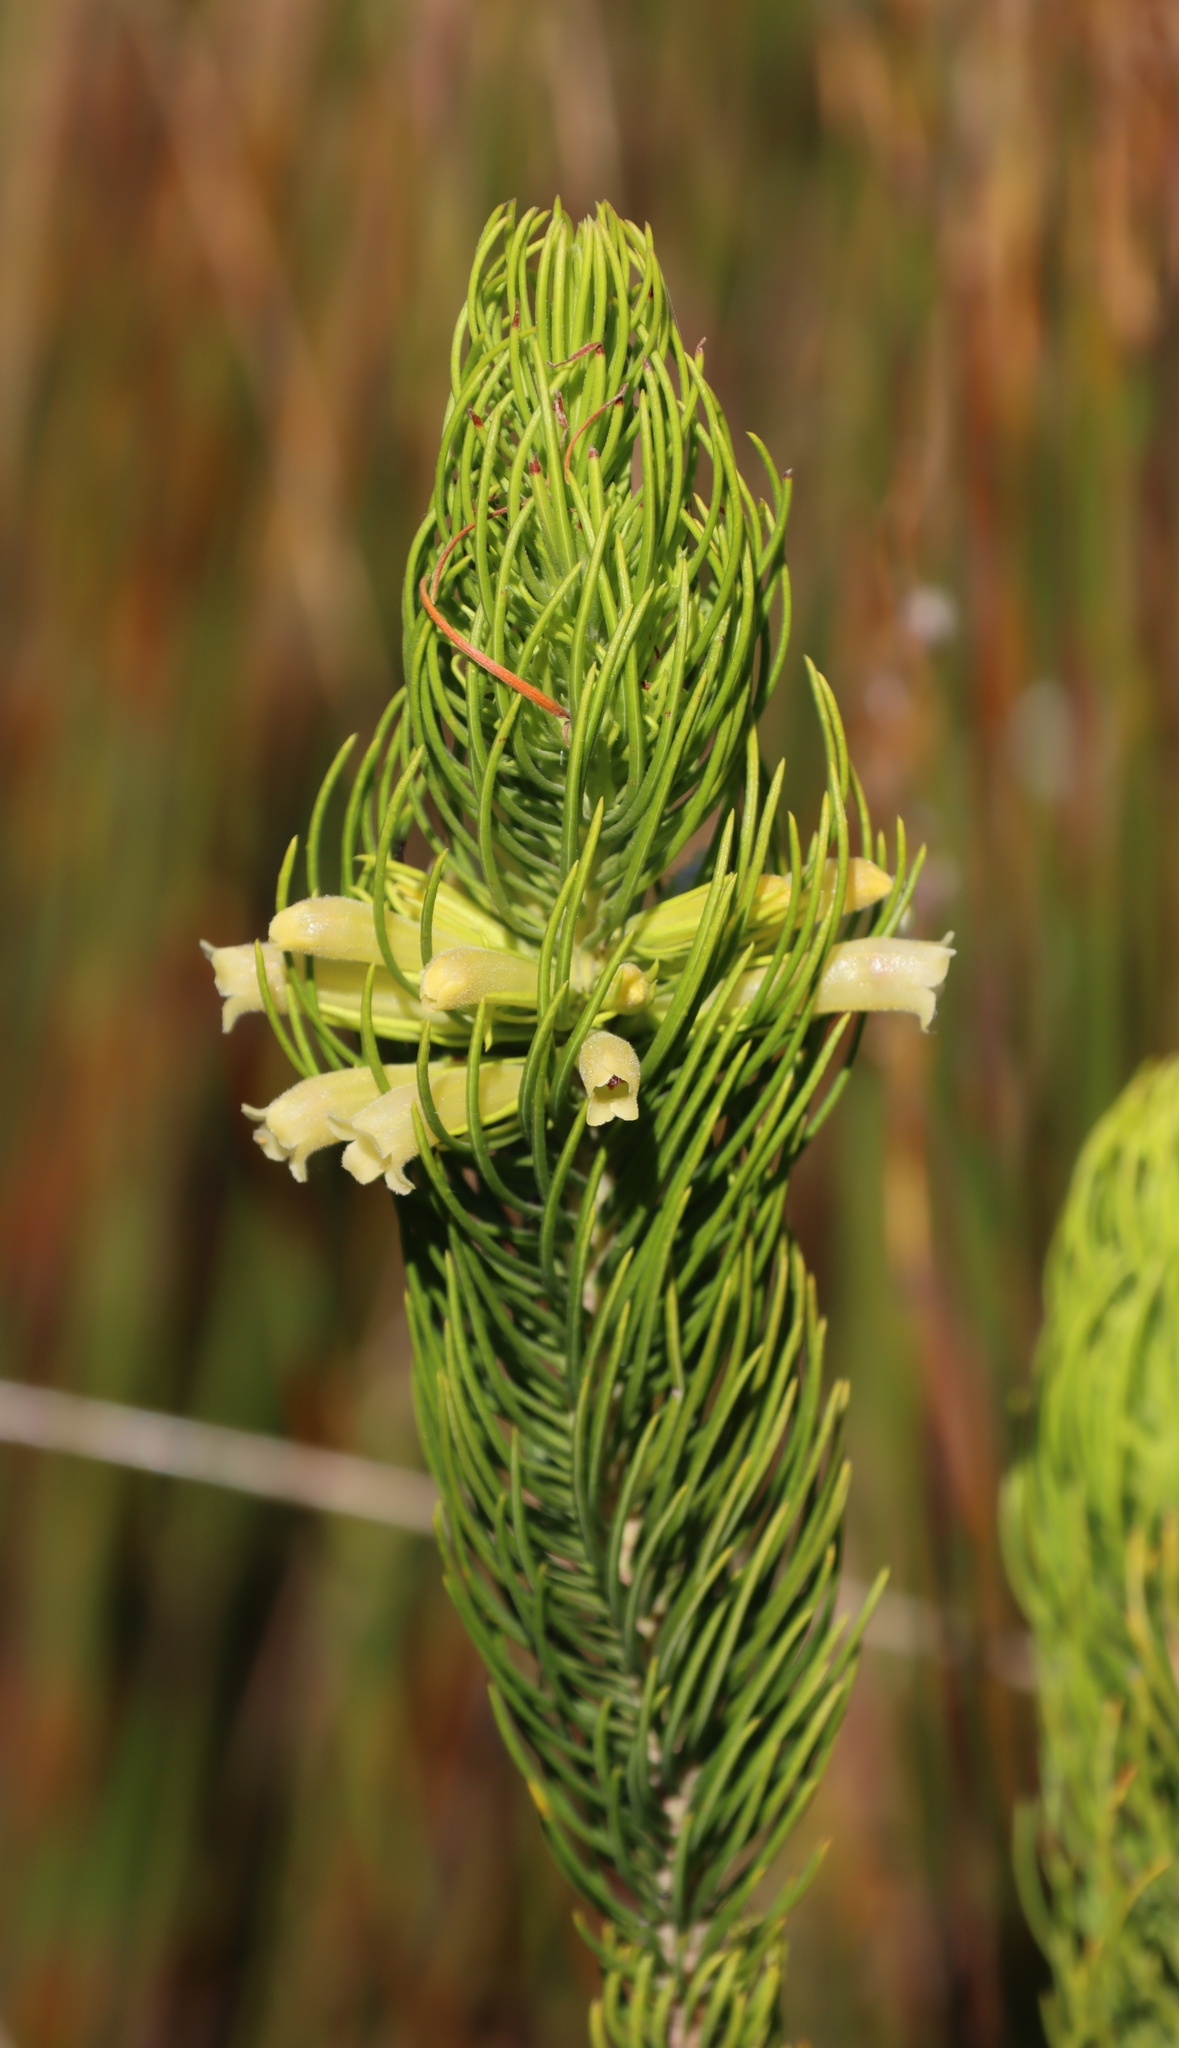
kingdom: Plantae
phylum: Tracheophyta
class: Magnoliopsida
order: Ericales
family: Ericaceae
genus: Erica
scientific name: Erica viscaria
